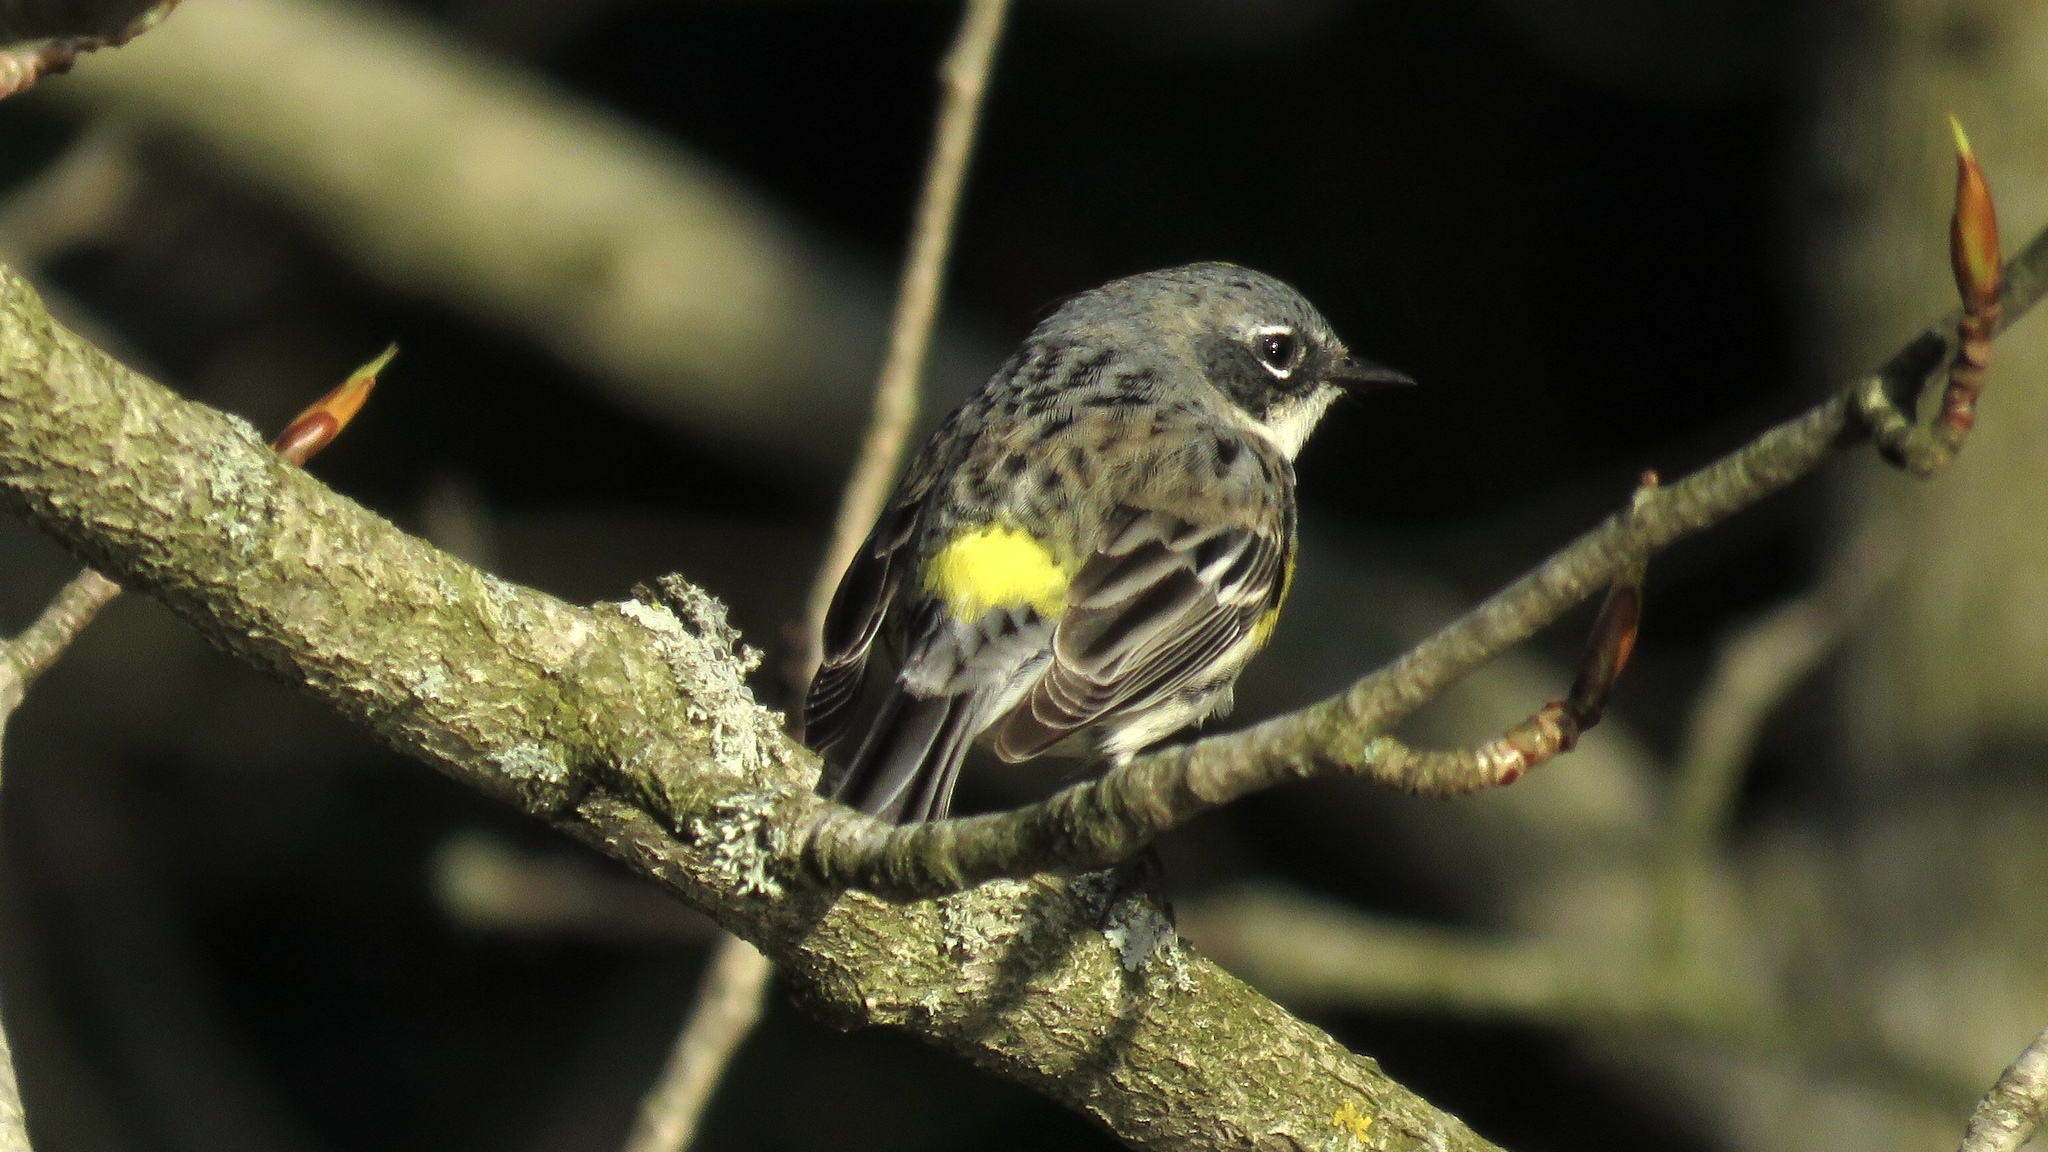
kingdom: Animalia
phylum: Chordata
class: Aves
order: Passeriformes
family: Parulidae
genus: Setophaga
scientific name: Setophaga coronata
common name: Myrtle warbler
